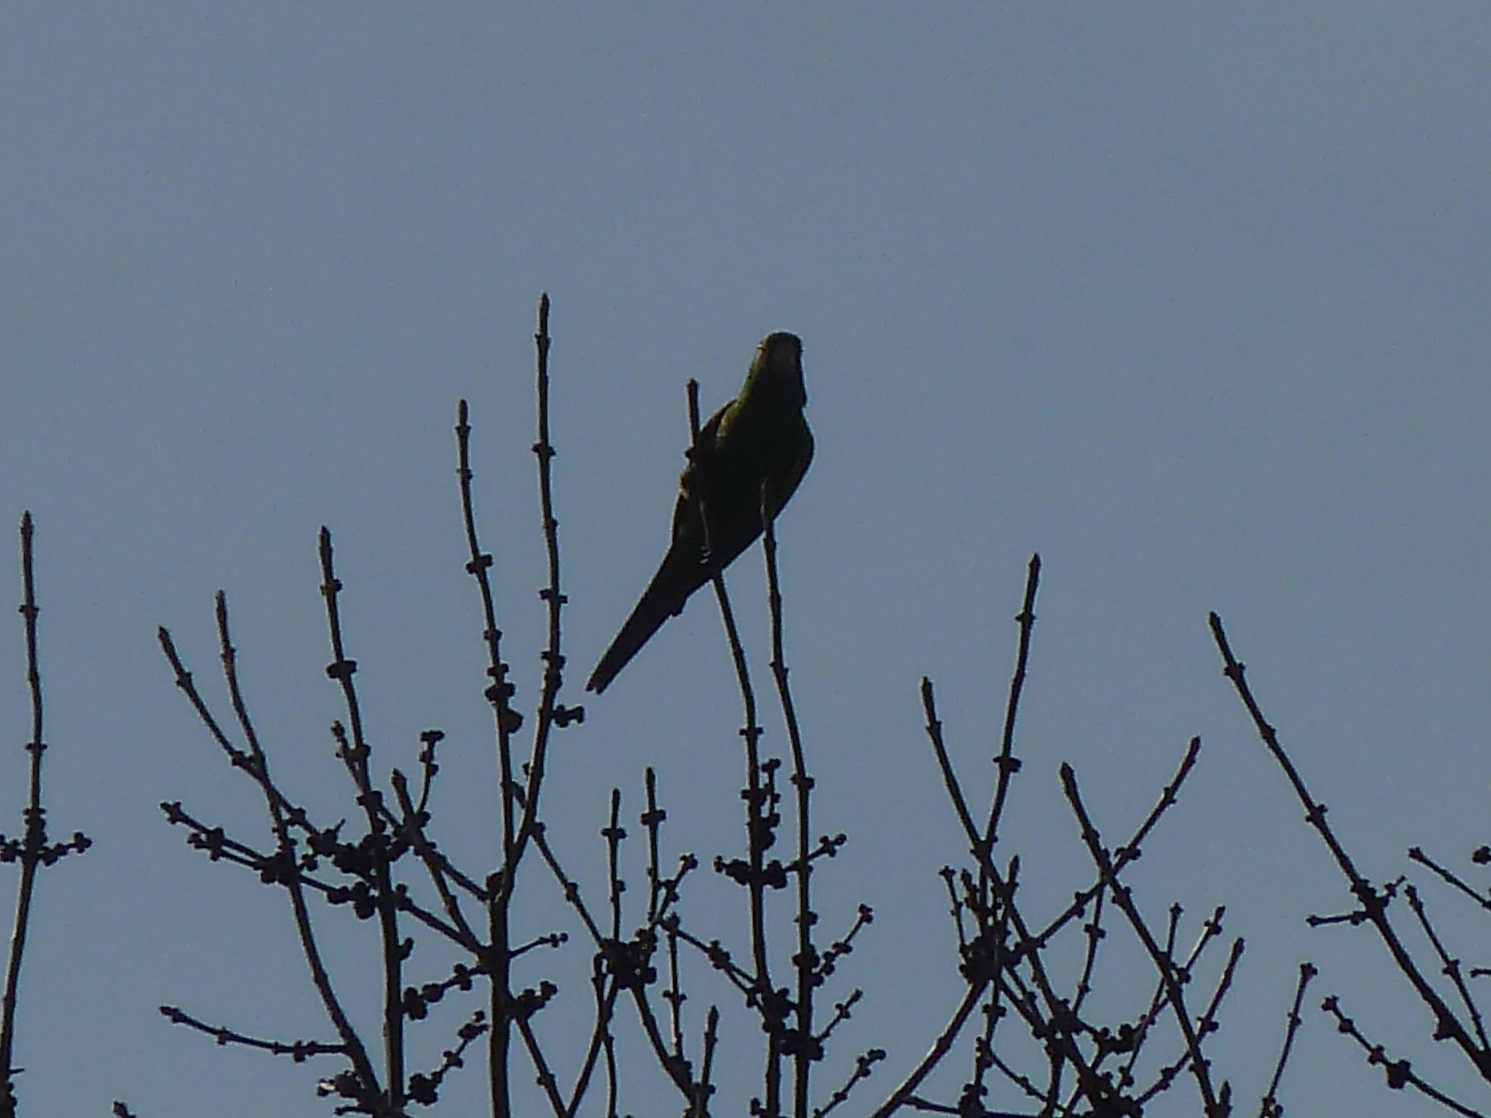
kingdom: Animalia
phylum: Chordata
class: Aves
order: Psittaciformes
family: Psittacidae
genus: Aratinga
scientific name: Aratinga leucophthalma
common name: White-eyed parakeet
